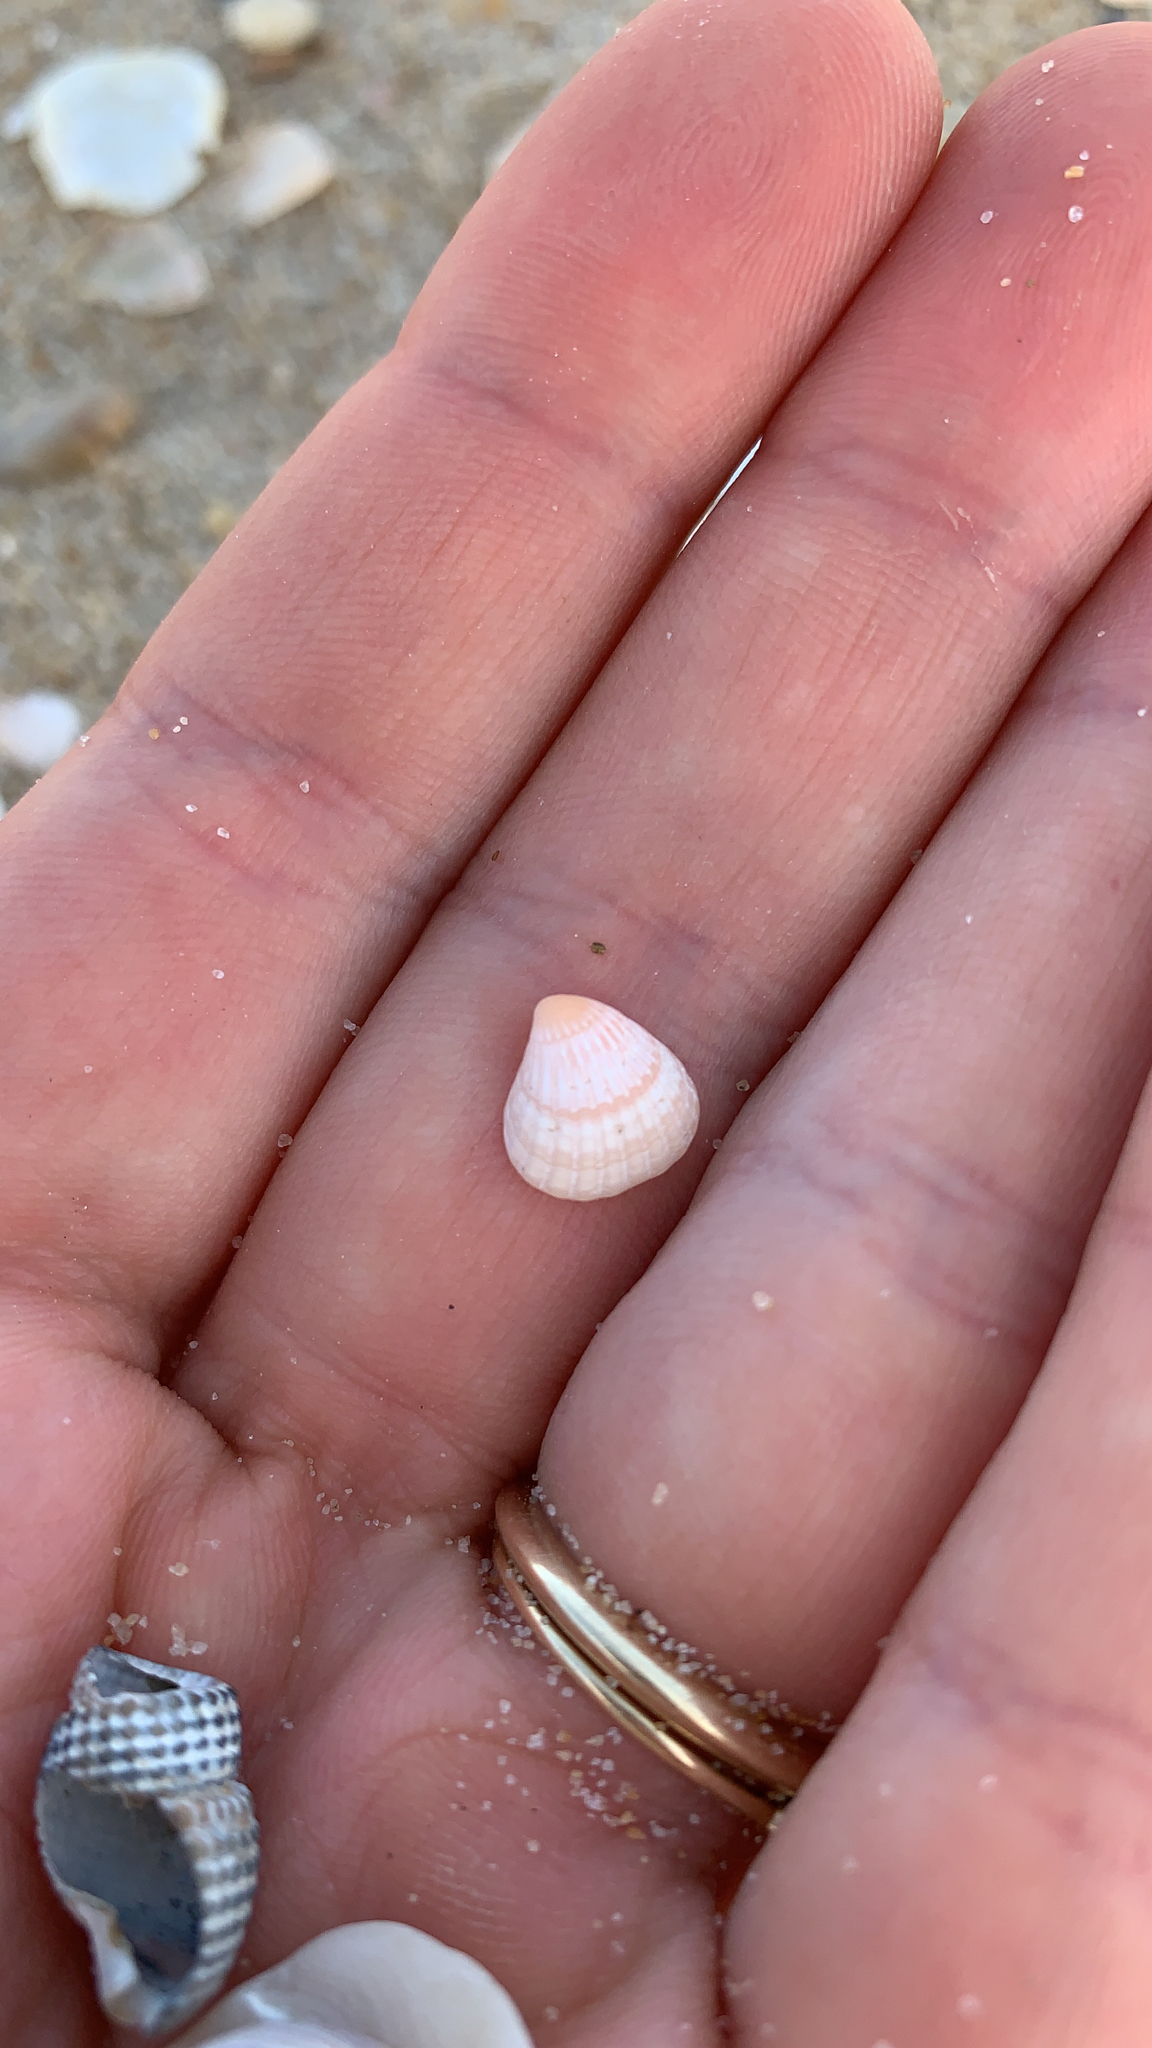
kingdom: Animalia
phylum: Mollusca
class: Bivalvia
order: Carditida
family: Carditidae
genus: Pleuromeris
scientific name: Pleuromeris tridentata
